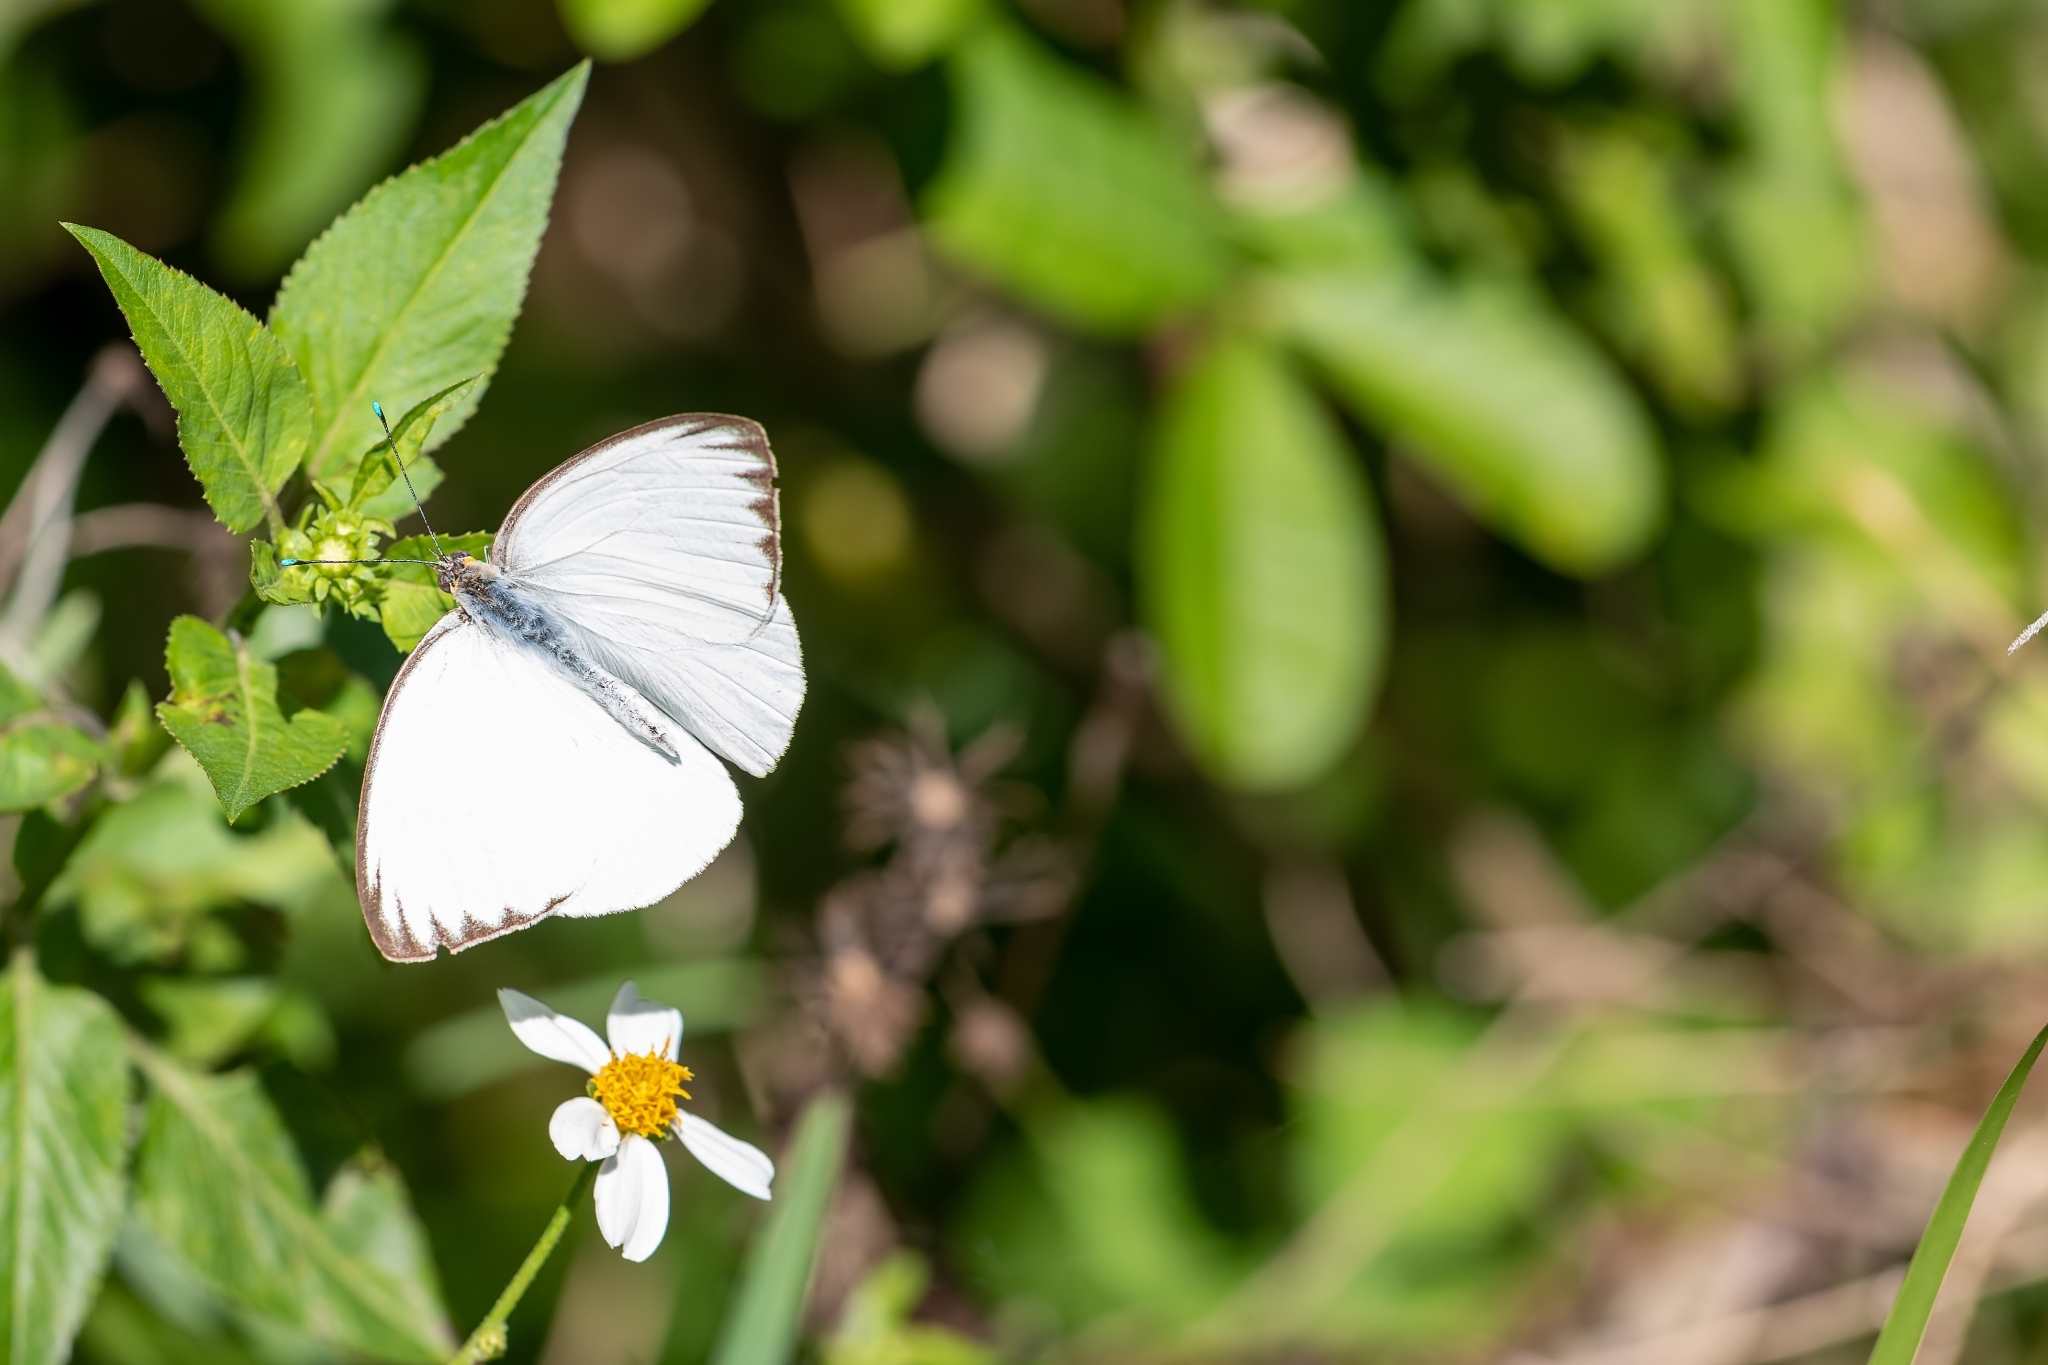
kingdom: Animalia
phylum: Arthropoda
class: Insecta
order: Lepidoptera
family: Pieridae
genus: Ascia
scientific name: Ascia monuste
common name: Great southern white
